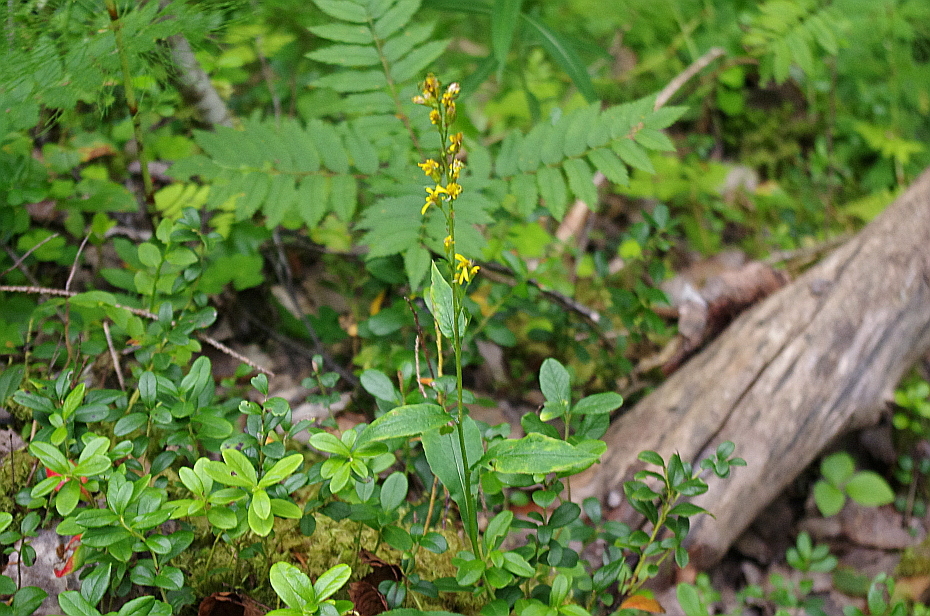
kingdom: Plantae
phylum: Tracheophyta
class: Magnoliopsida
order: Asterales
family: Asteraceae
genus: Solidago
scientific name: Solidago virgaurea
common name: Goldenrod
